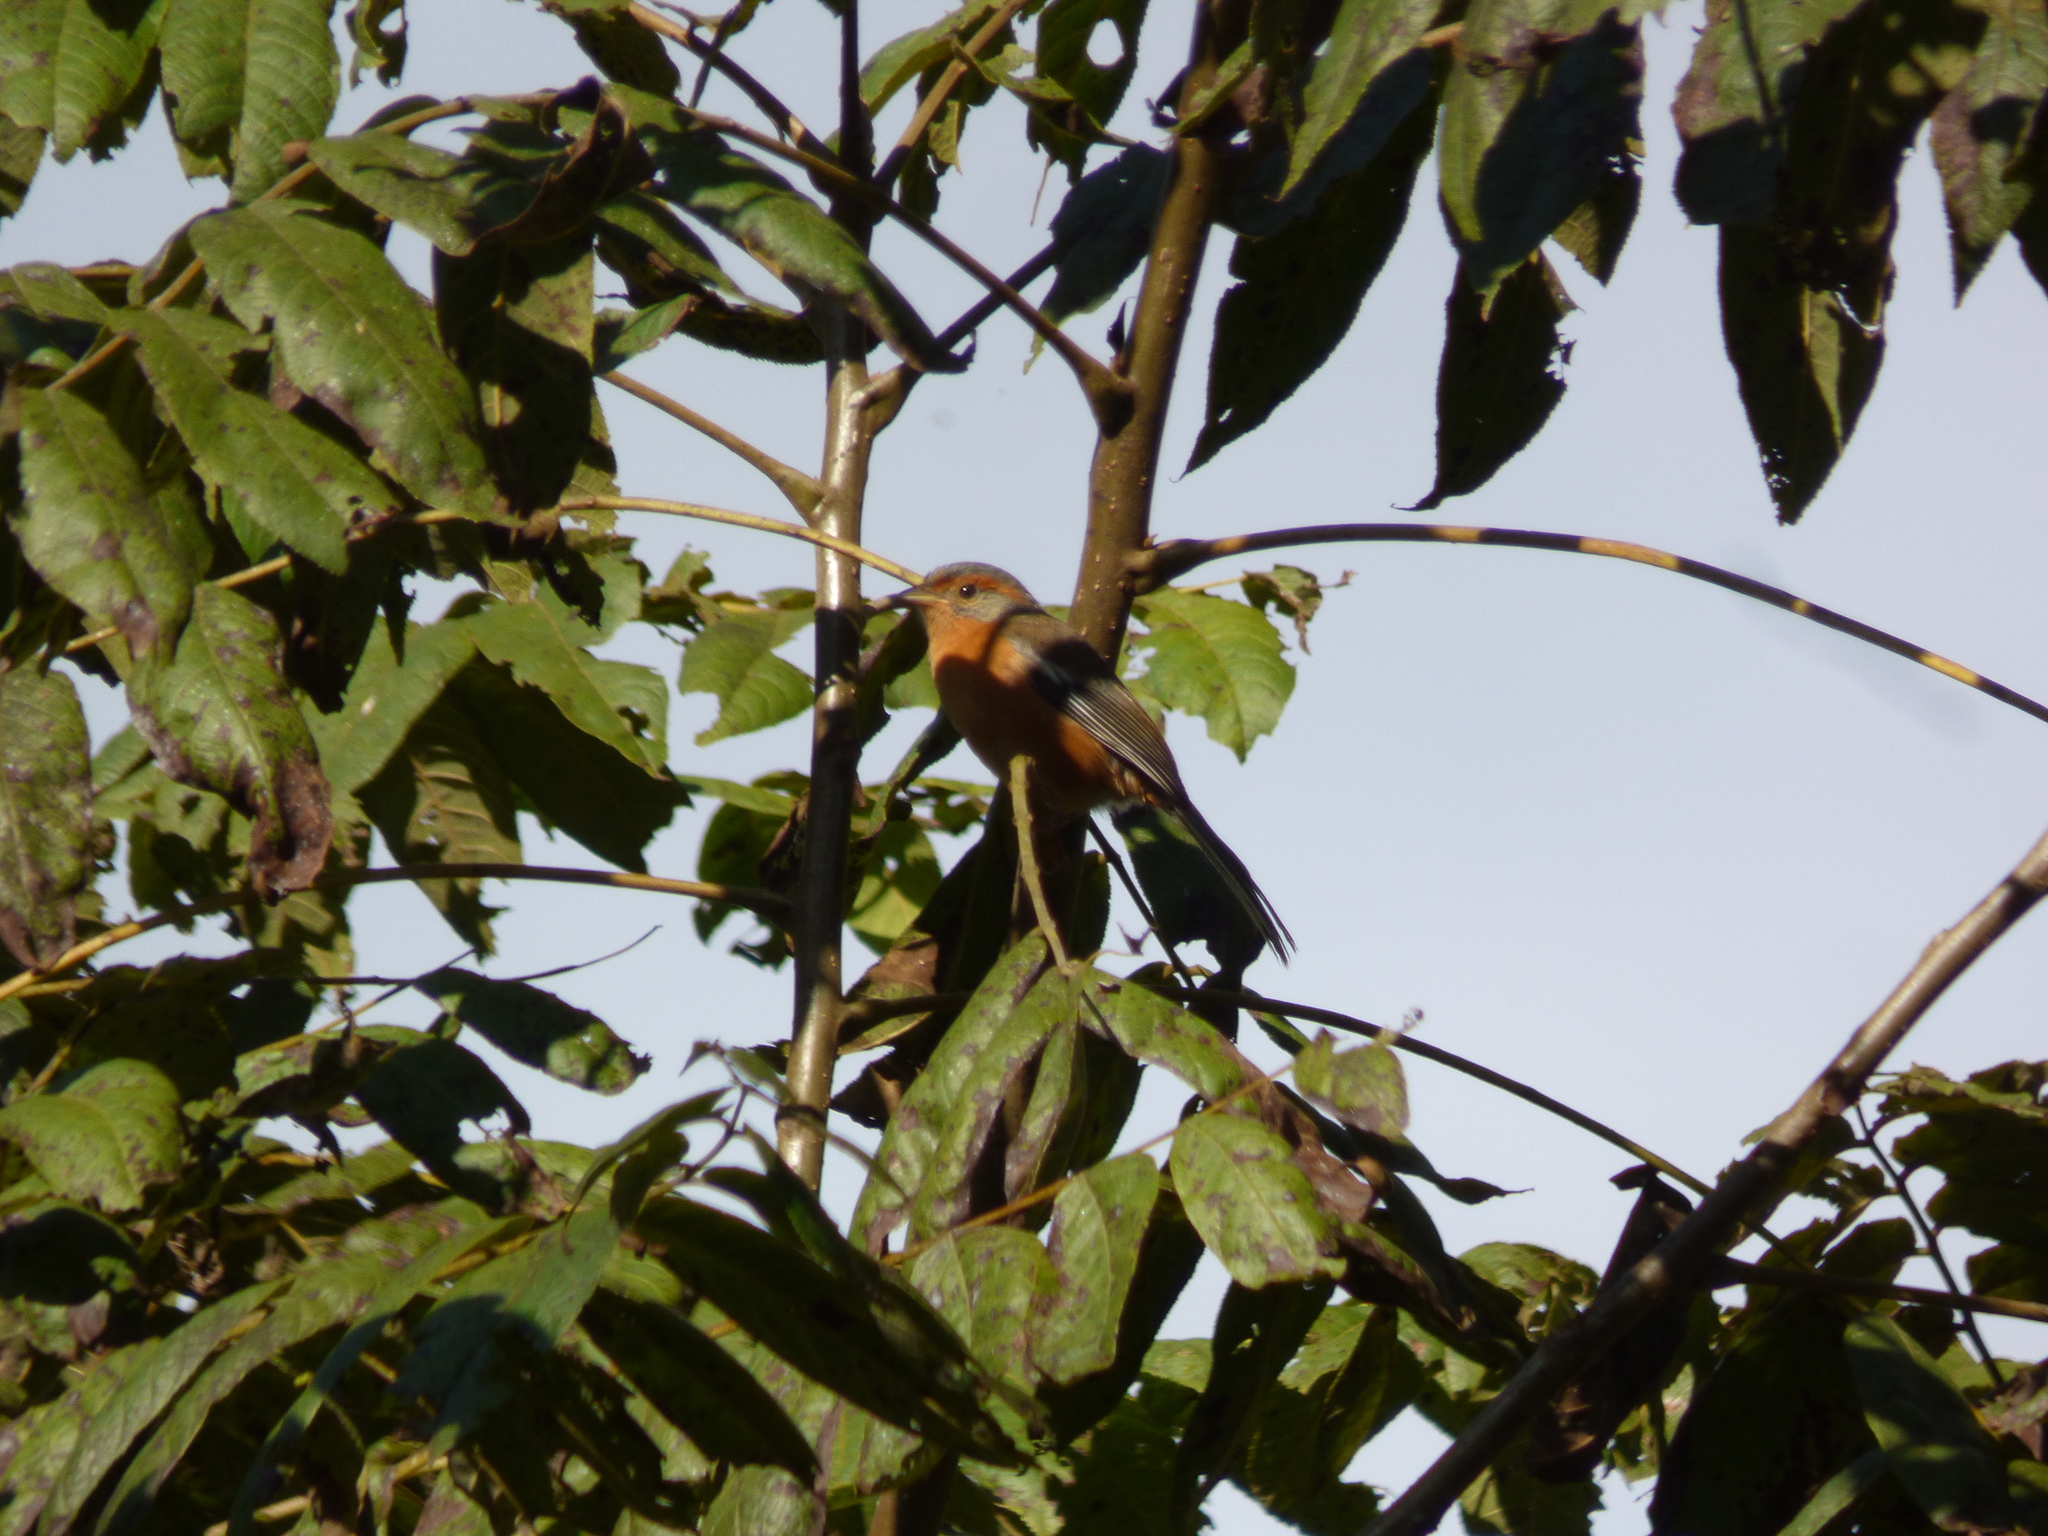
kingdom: Animalia
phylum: Chordata
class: Aves
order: Passeriformes
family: Thraupidae
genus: Microspingus
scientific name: Microspingus erythrophrys
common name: Rusty-browed warbling-finch
